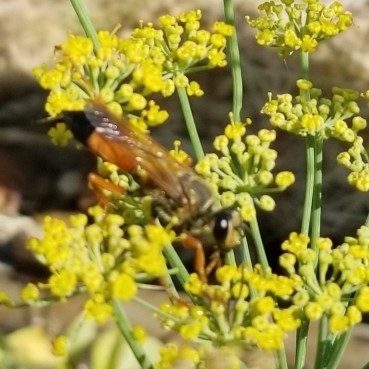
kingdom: Animalia
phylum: Arthropoda
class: Insecta
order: Hymenoptera
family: Sphecidae
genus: Sphex
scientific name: Sphex ichneumoneus
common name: Great golden digger wasp
